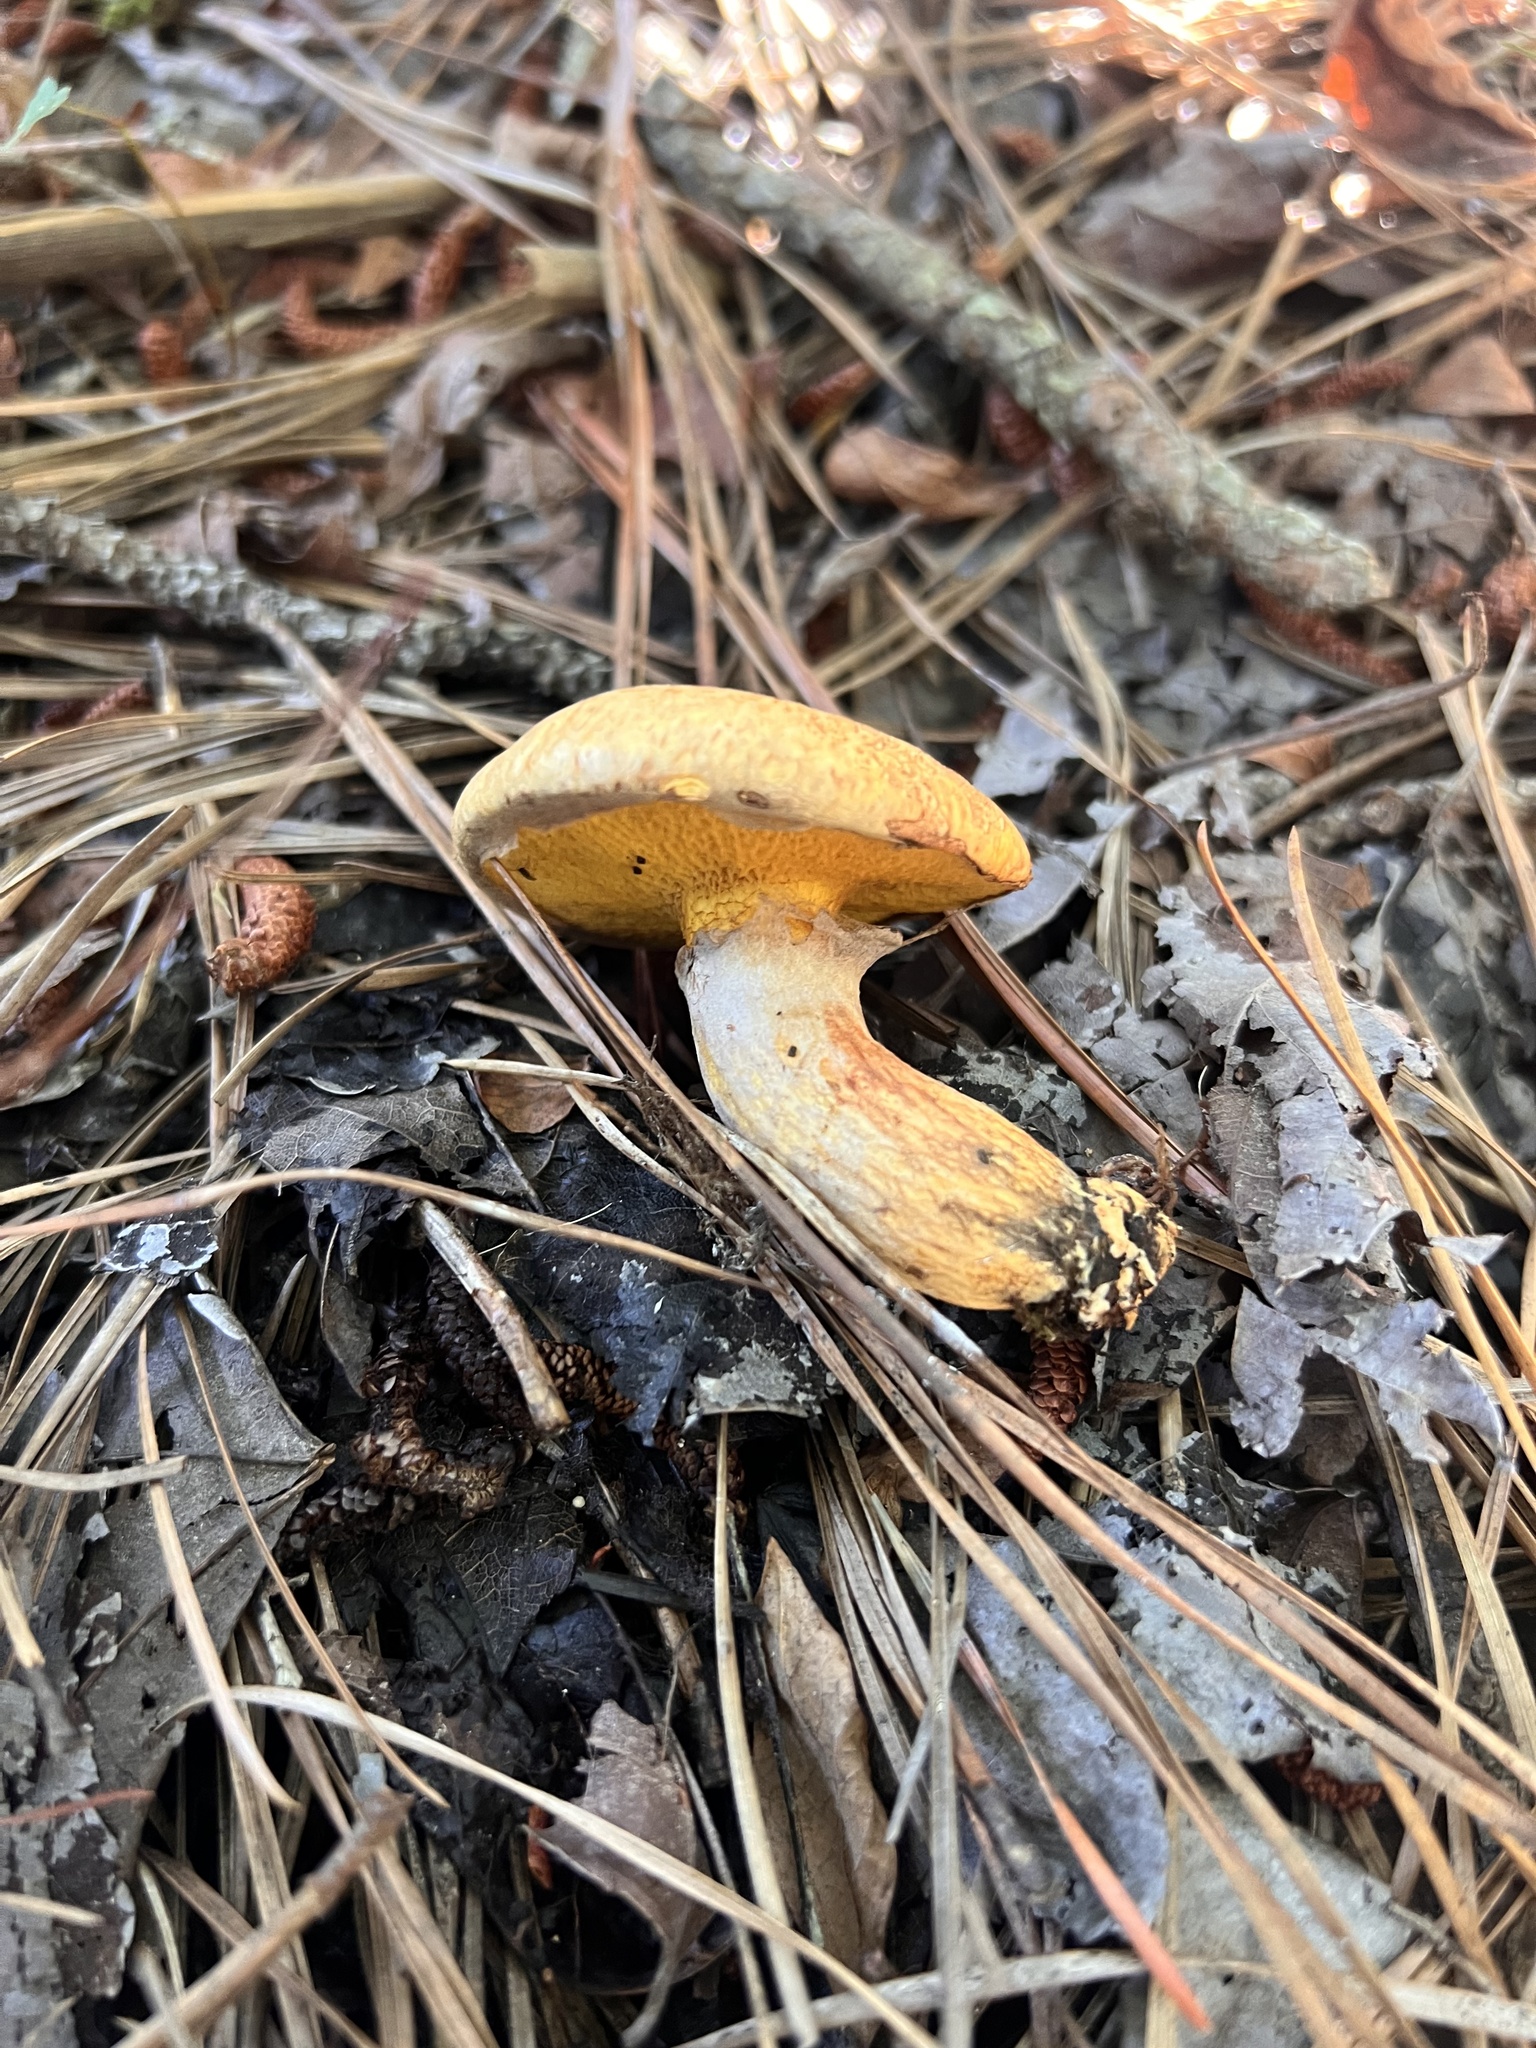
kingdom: Fungi
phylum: Basidiomycota
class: Agaricomycetes
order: Boletales
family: Suillaceae
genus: Suillus
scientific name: Suillus decipiens
